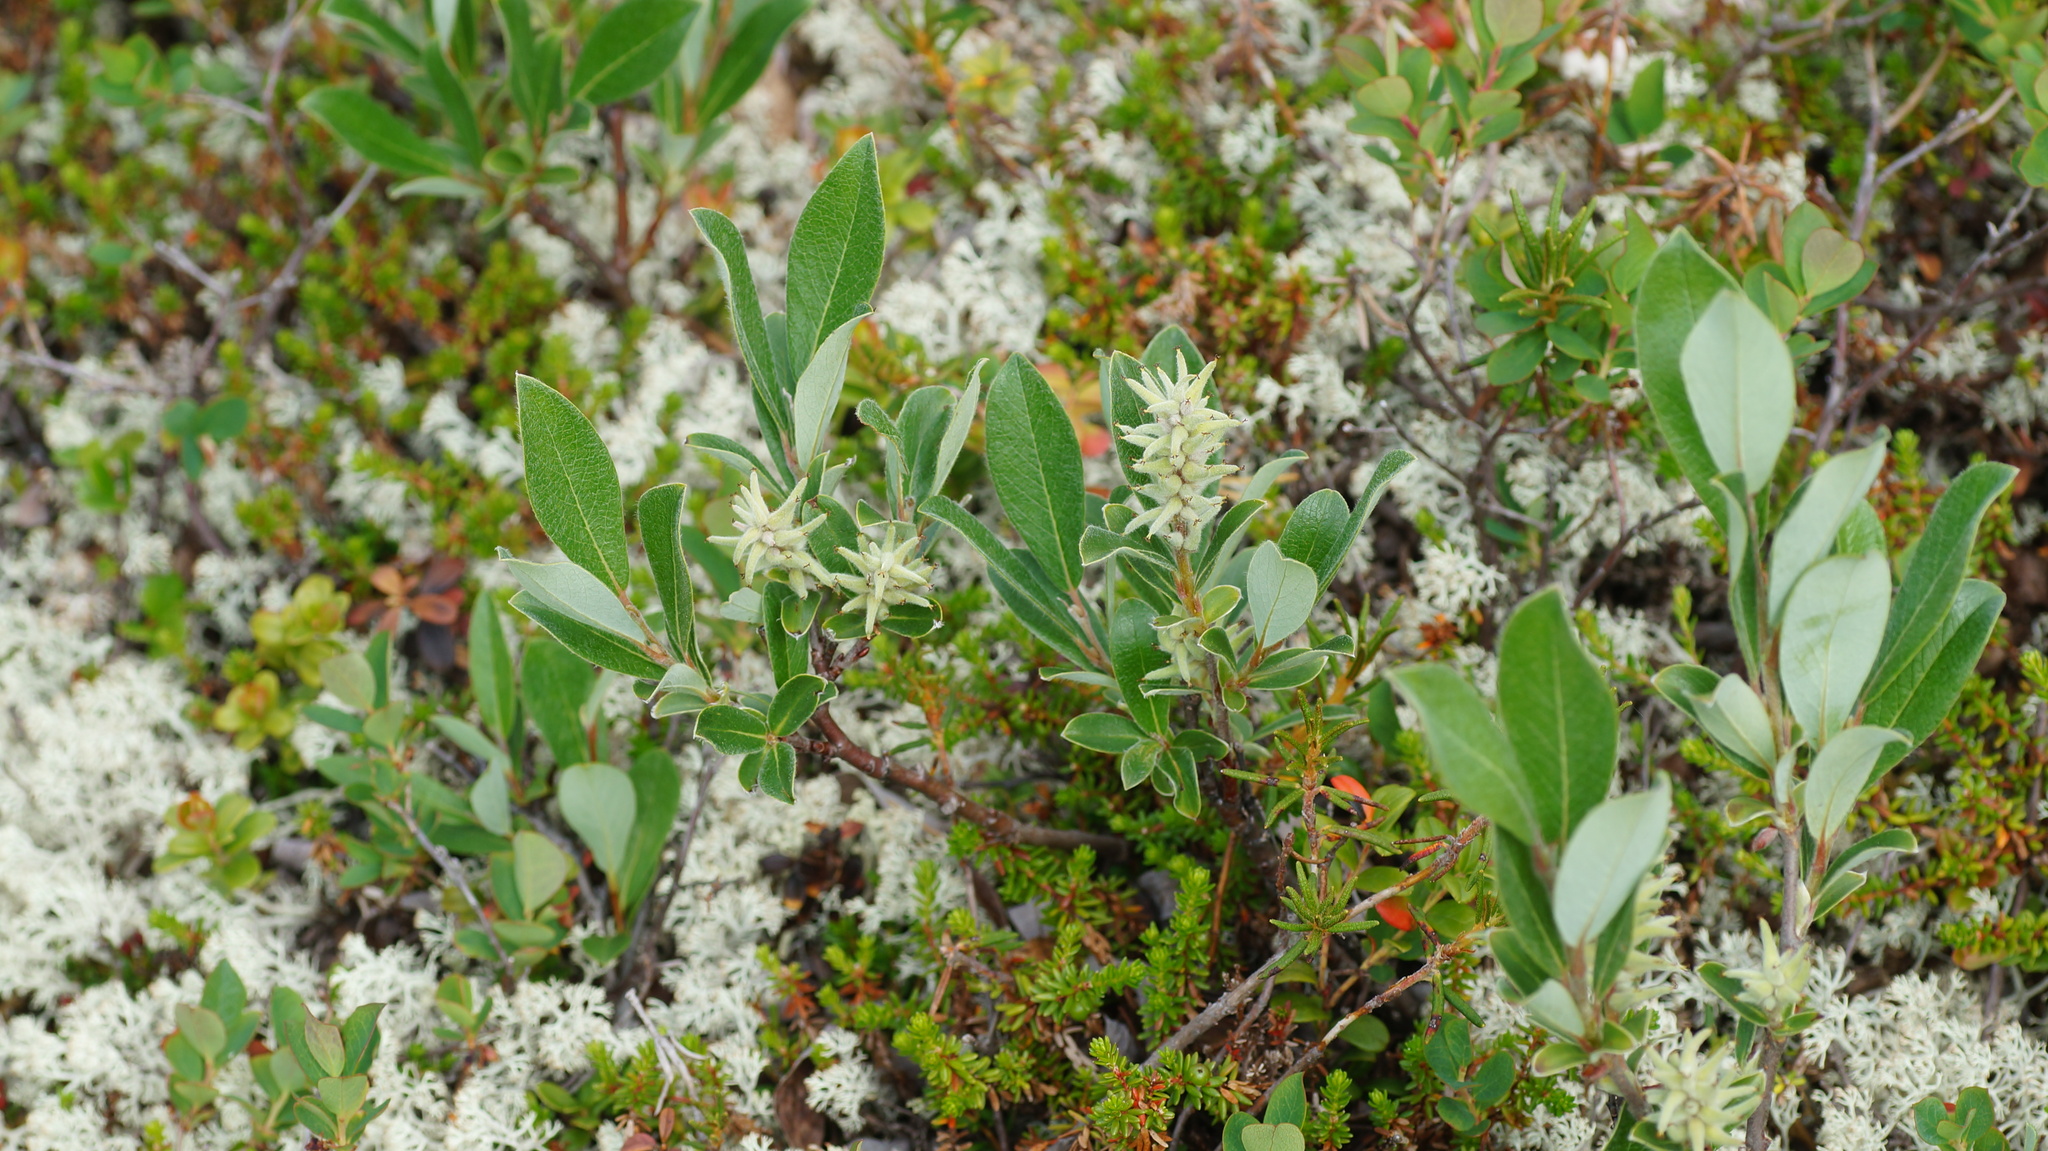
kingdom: Plantae
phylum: Tracheophyta
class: Magnoliopsida
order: Malpighiales
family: Salicaceae
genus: Salix
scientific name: Salix glauca
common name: Glaucous willow
